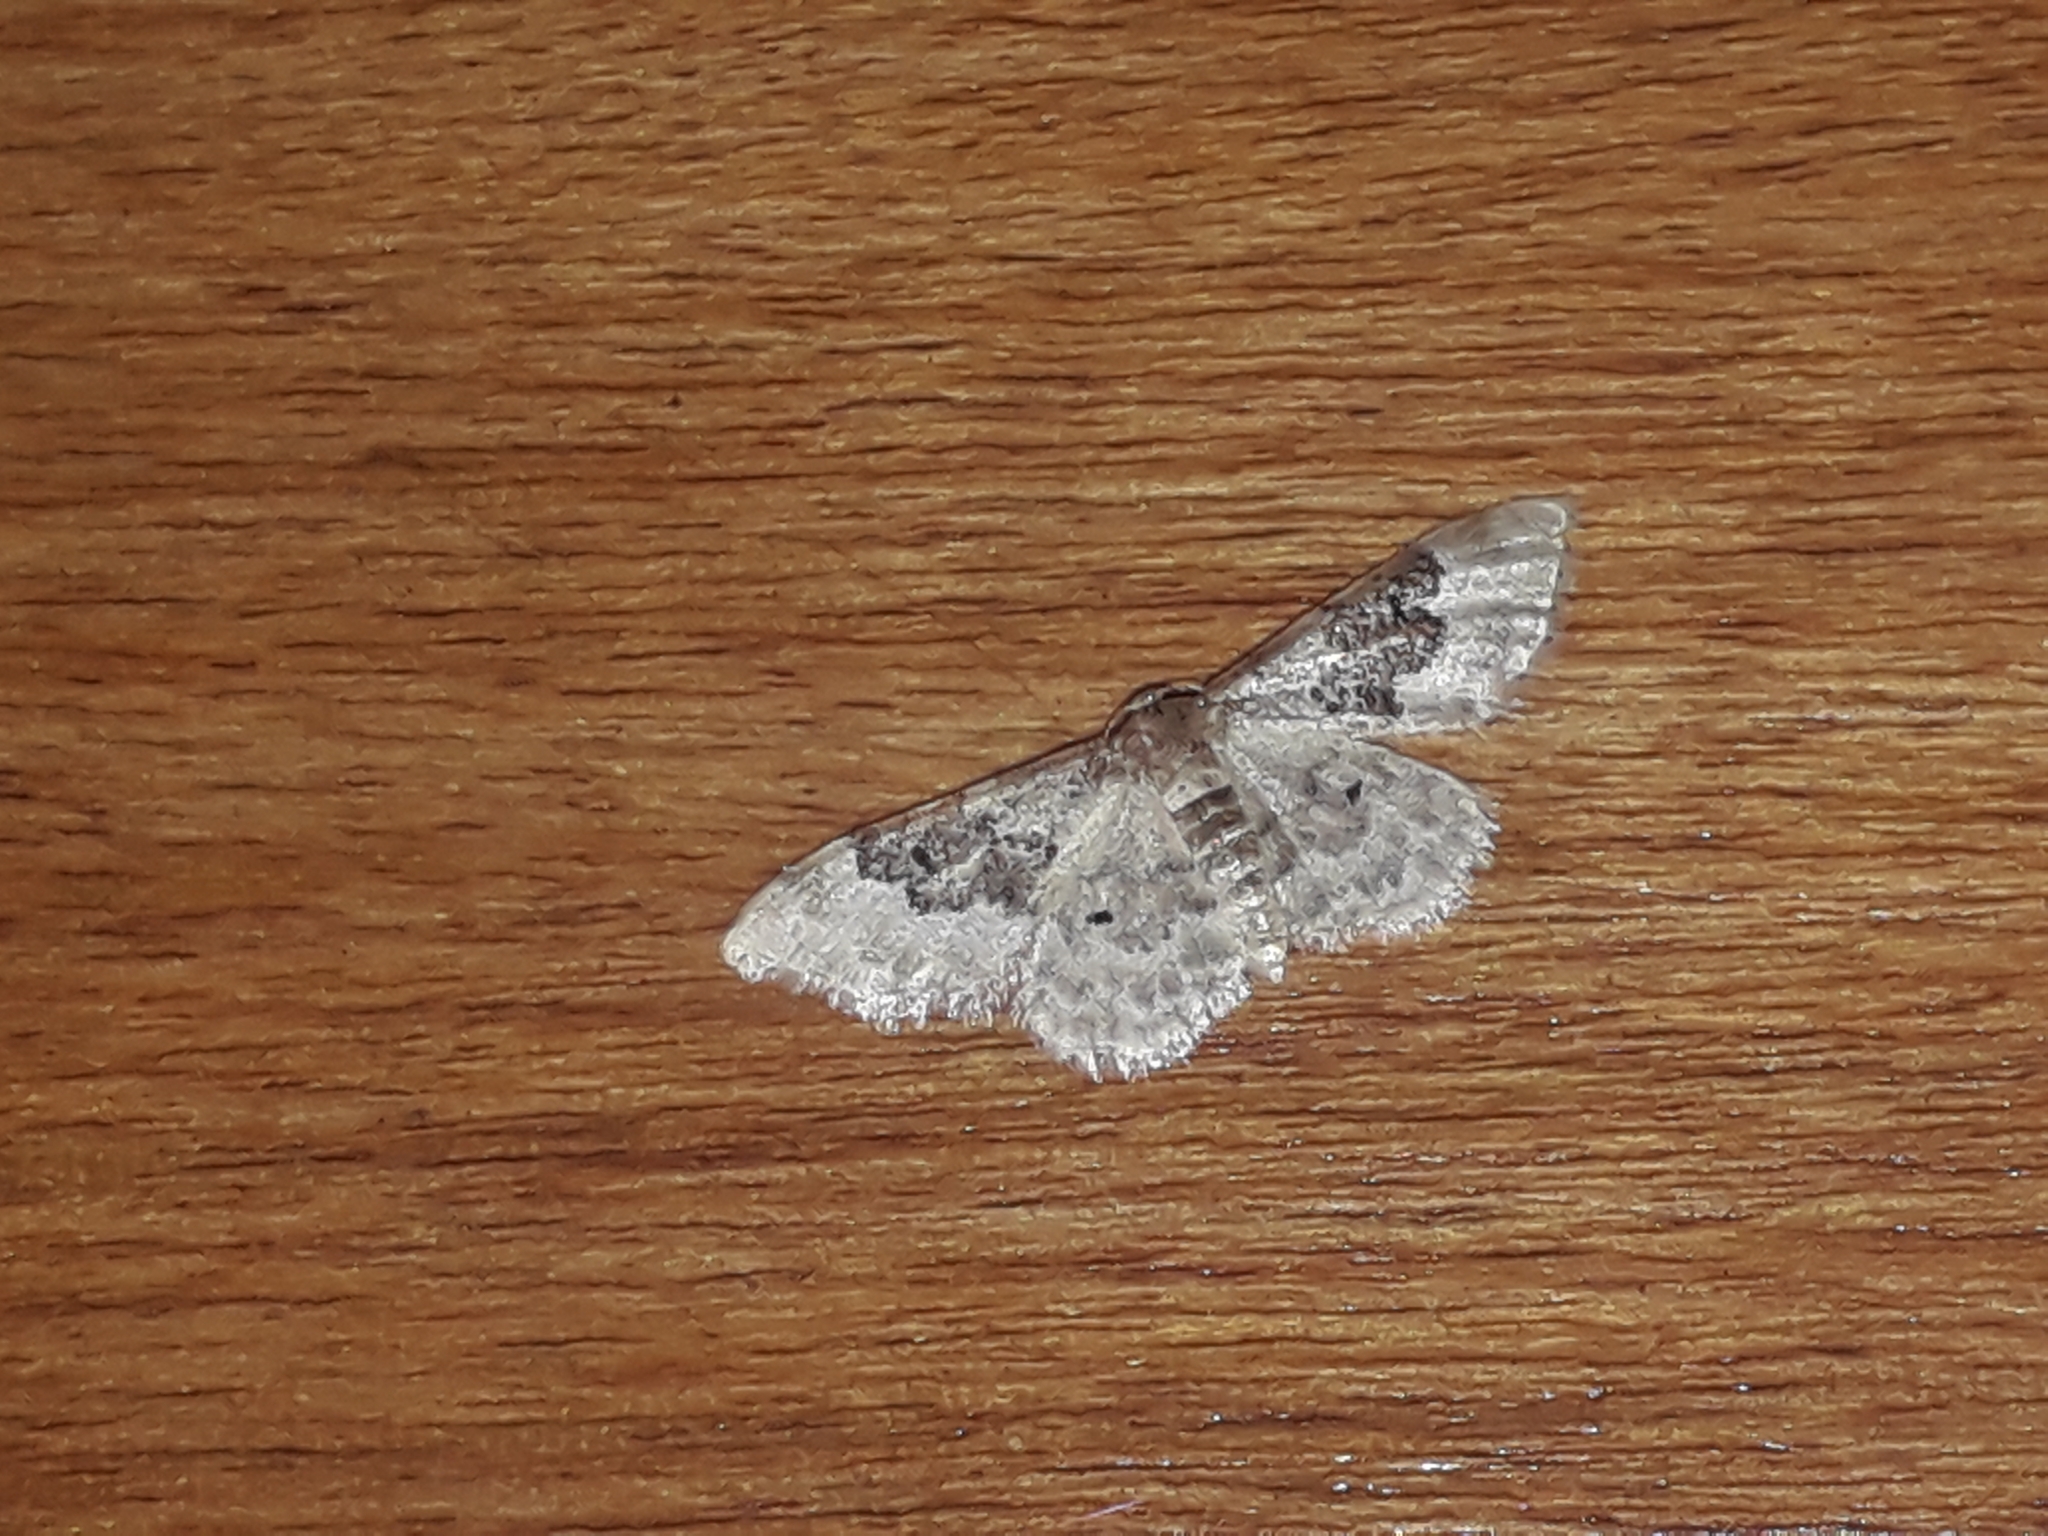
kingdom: Animalia
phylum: Arthropoda
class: Insecta
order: Lepidoptera
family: Geometridae
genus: Idaea
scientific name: Idaea rusticata
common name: Least carpet
